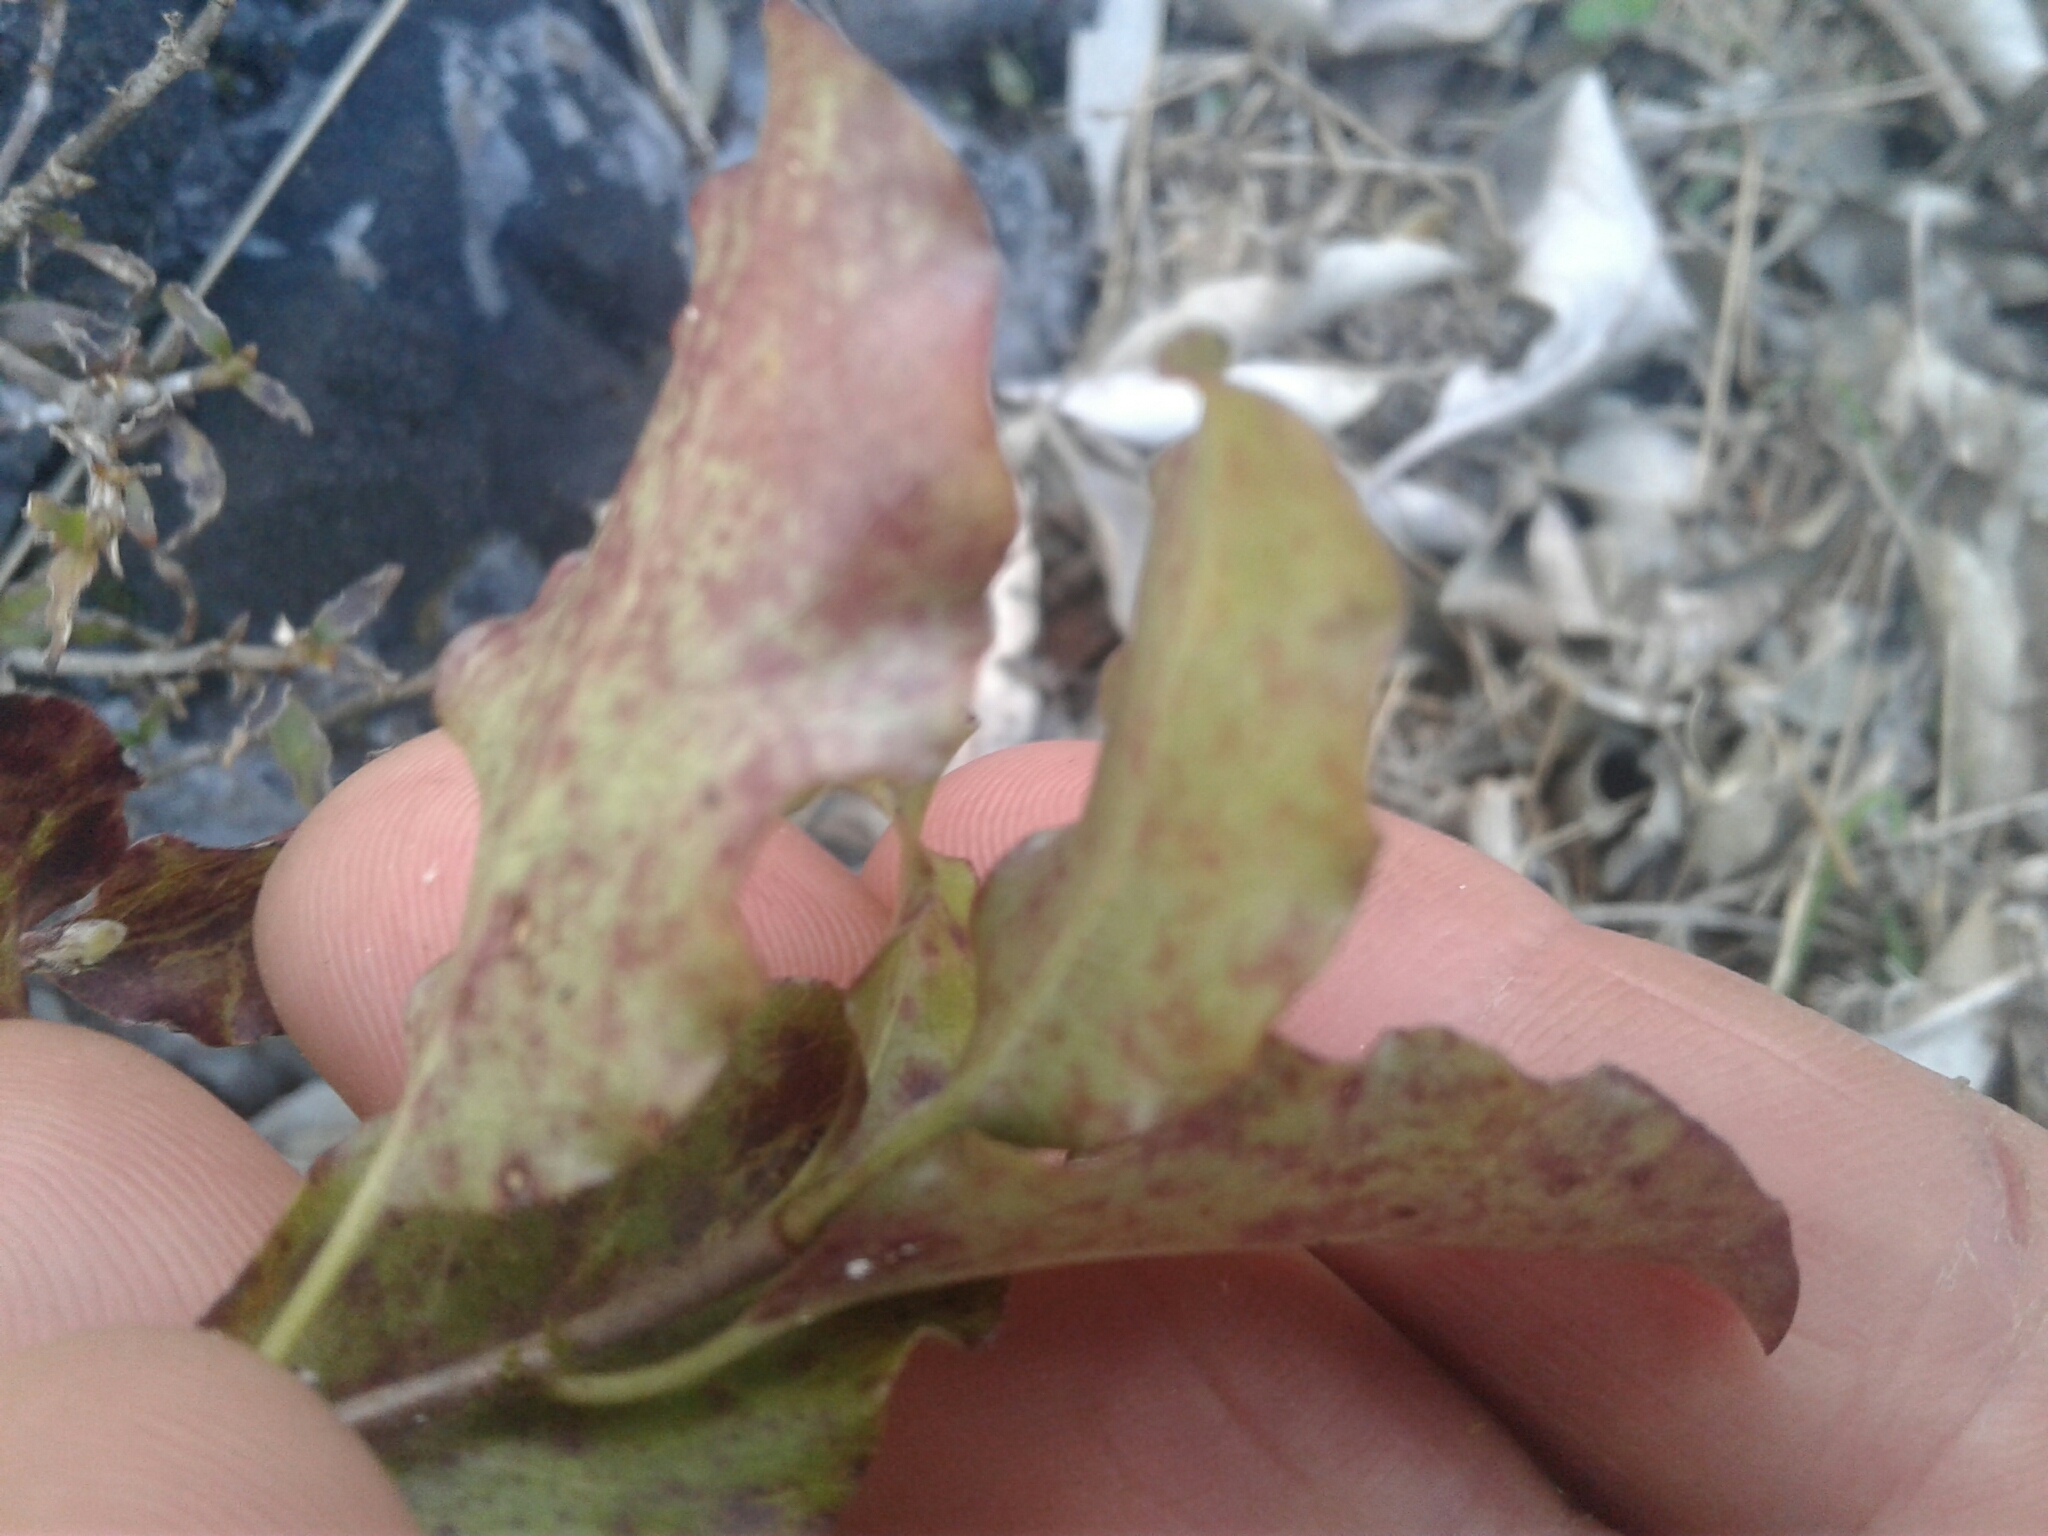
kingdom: Plantae
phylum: Tracheophyta
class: Magnoliopsida
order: Apiales
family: Pittosporaceae
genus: Pittosporum
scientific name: Pittosporum tenuifolium
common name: Kohuhu
